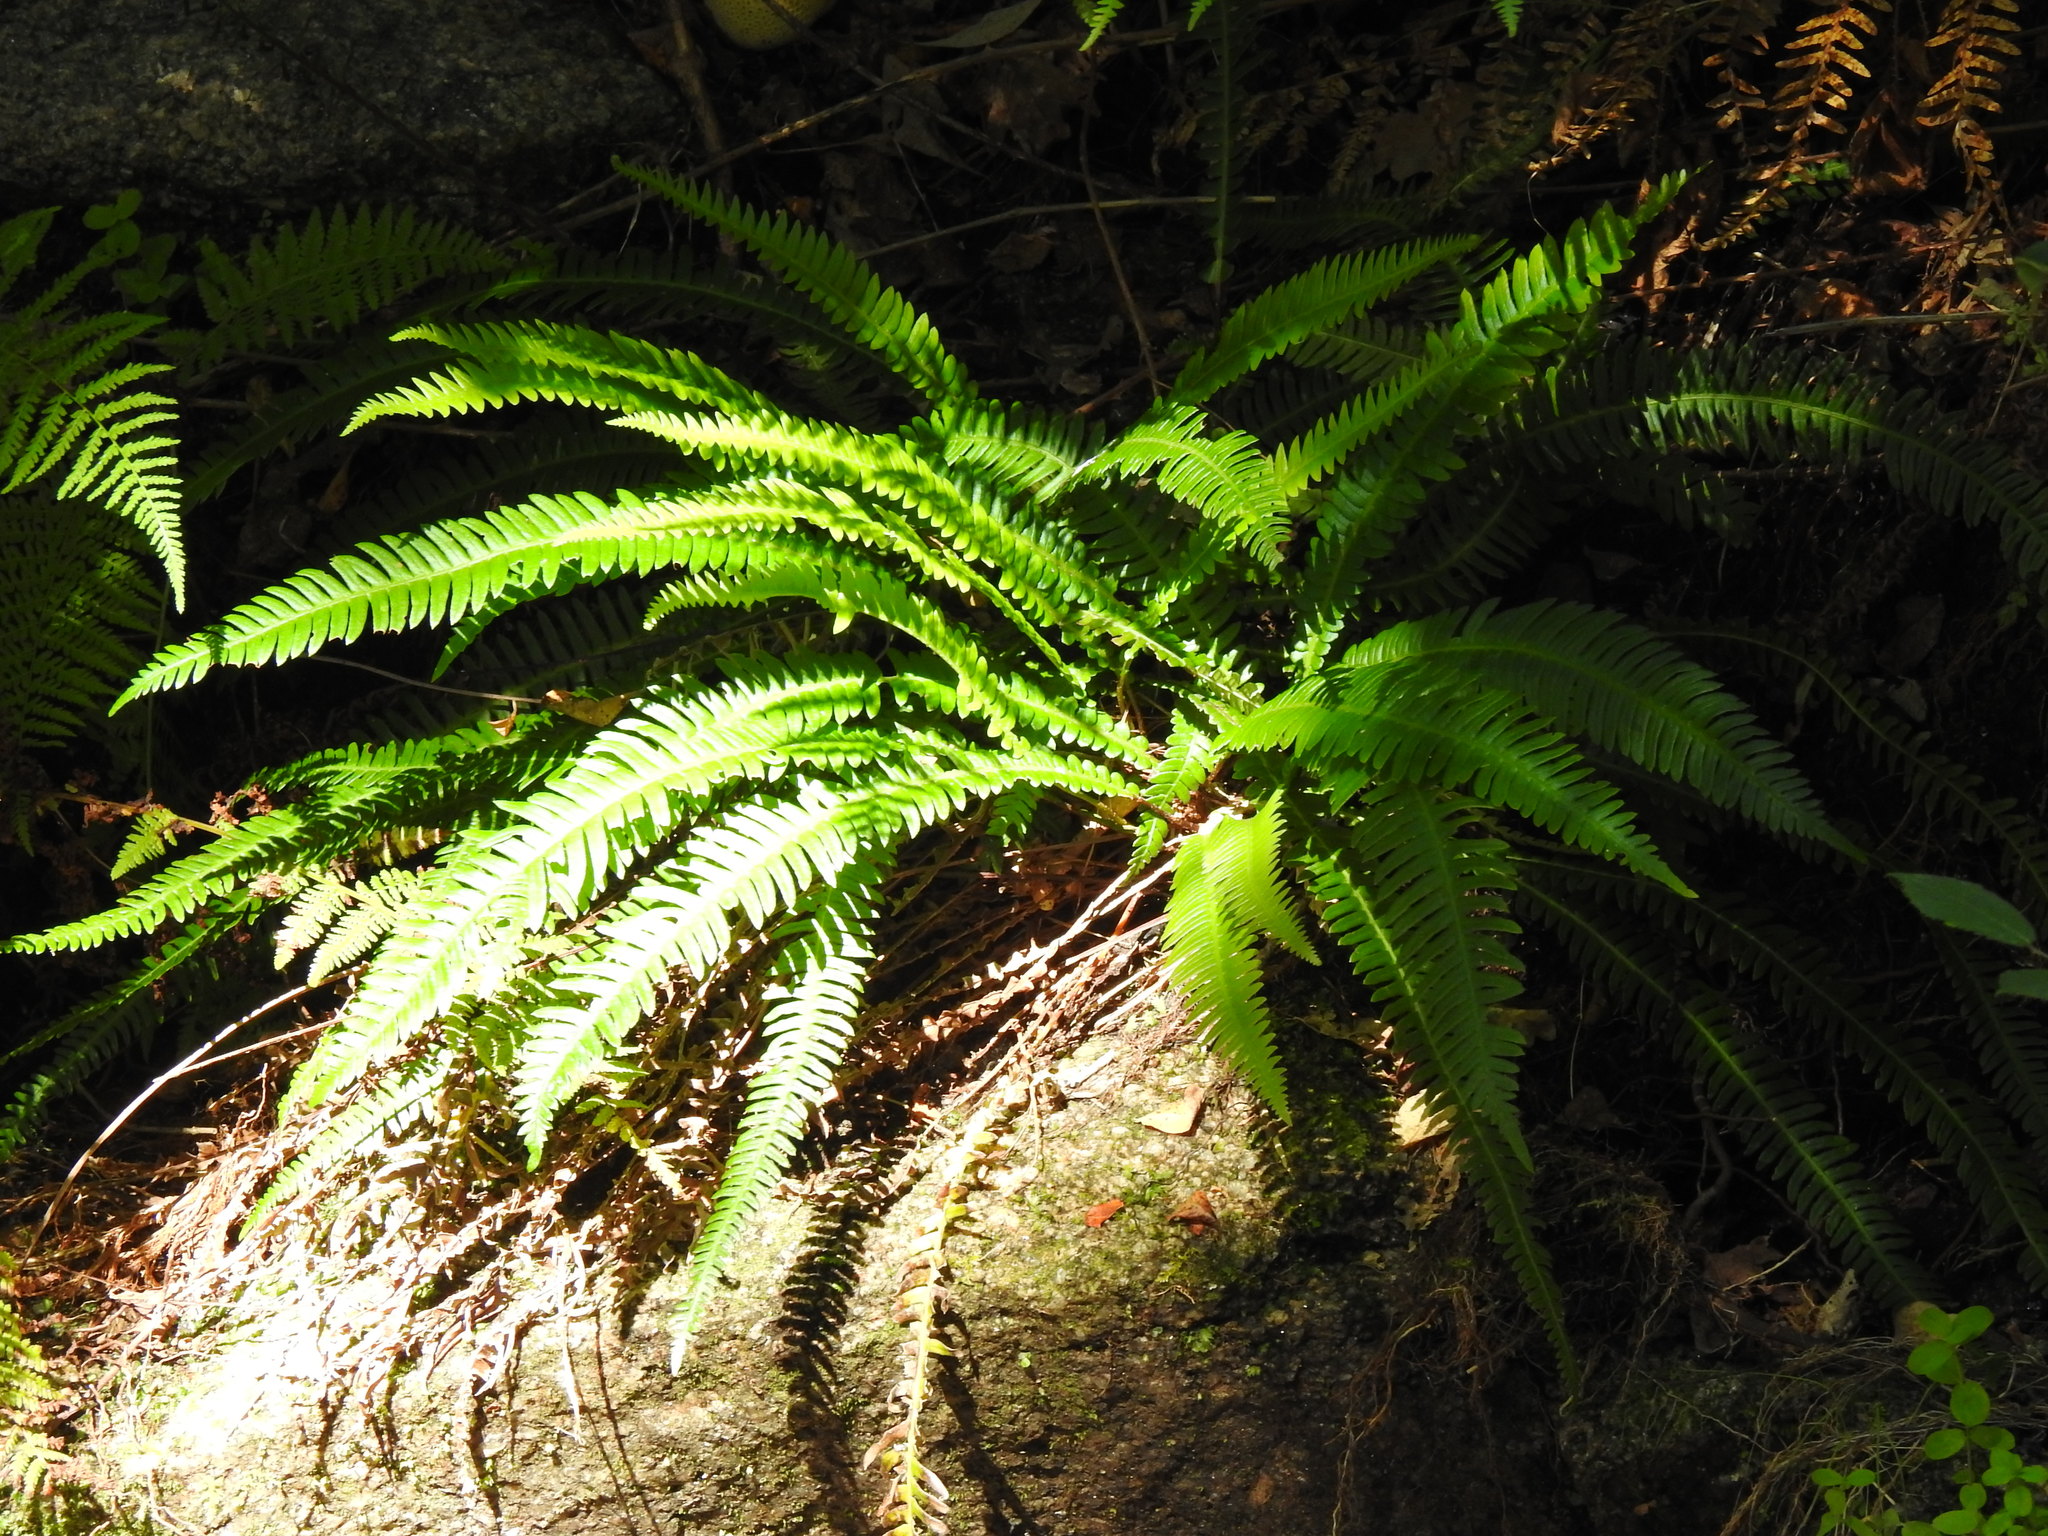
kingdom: Plantae
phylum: Tracheophyta
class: Polypodiopsida
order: Polypodiales
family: Blechnaceae
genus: Struthiopteris
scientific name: Struthiopteris spicant
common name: Deer fern
